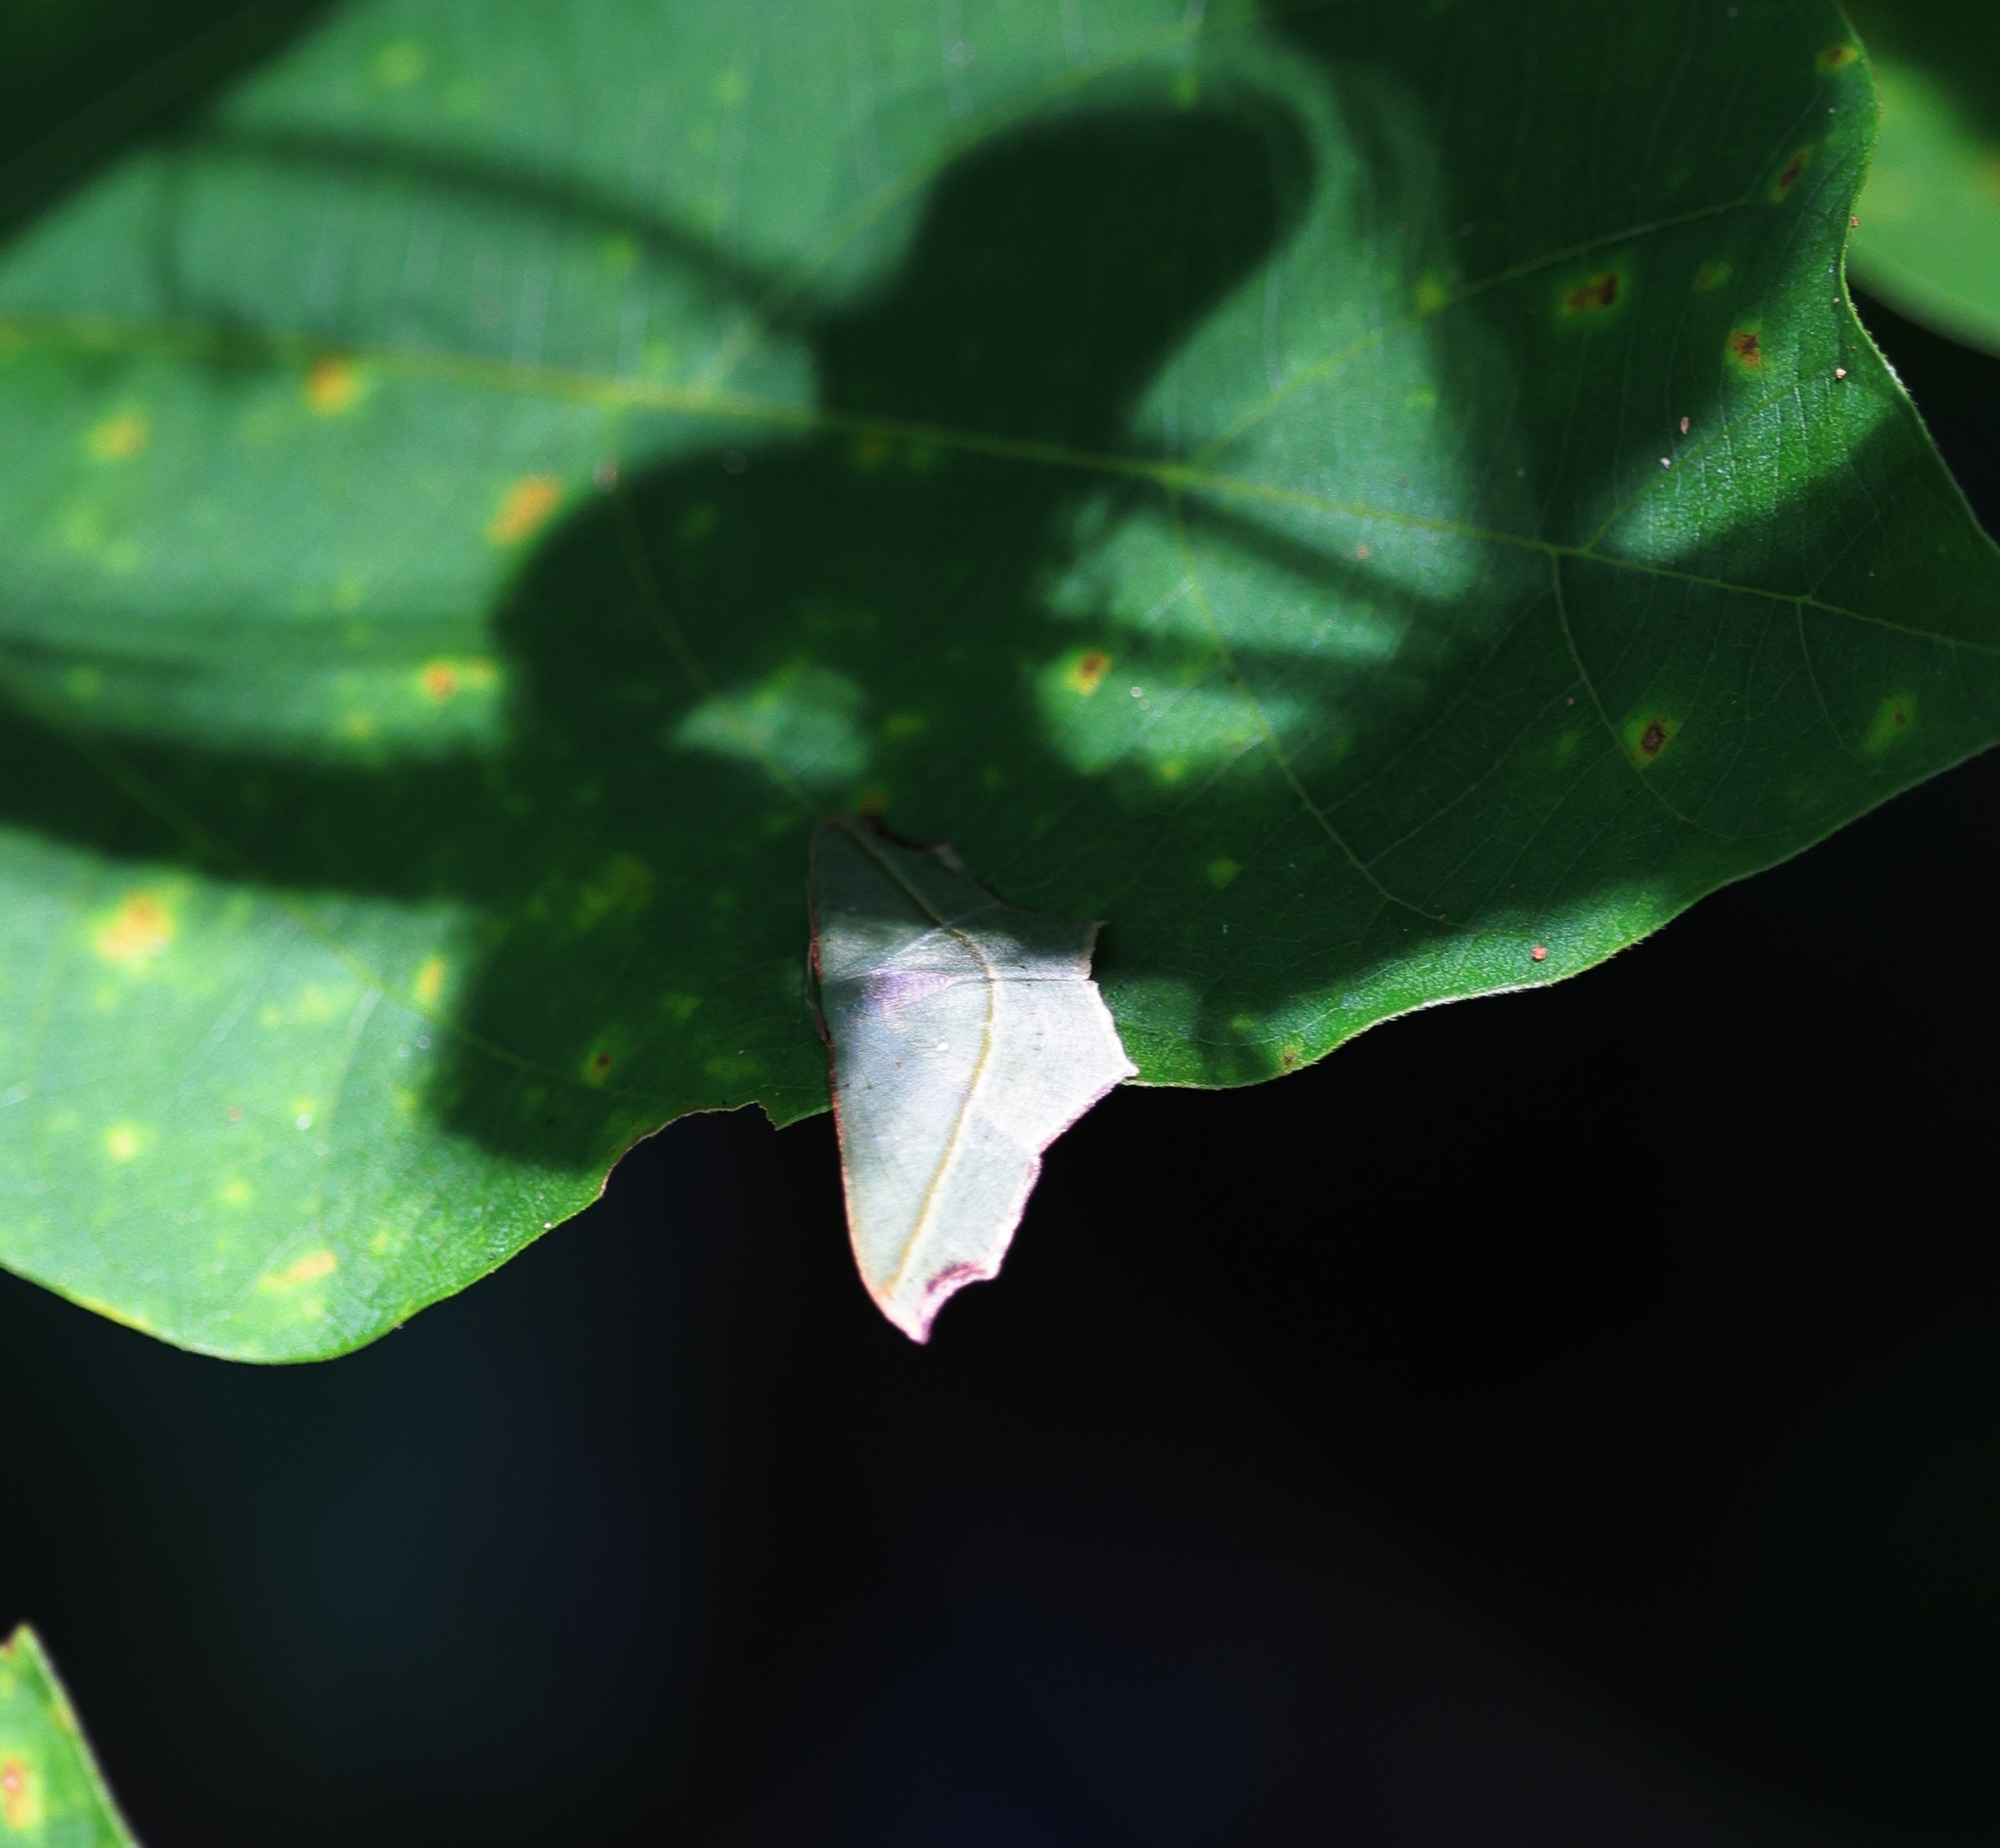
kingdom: Animalia
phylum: Arthropoda
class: Insecta
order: Lepidoptera
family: Geometridae
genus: Traminda
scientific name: Traminda aventiaria
